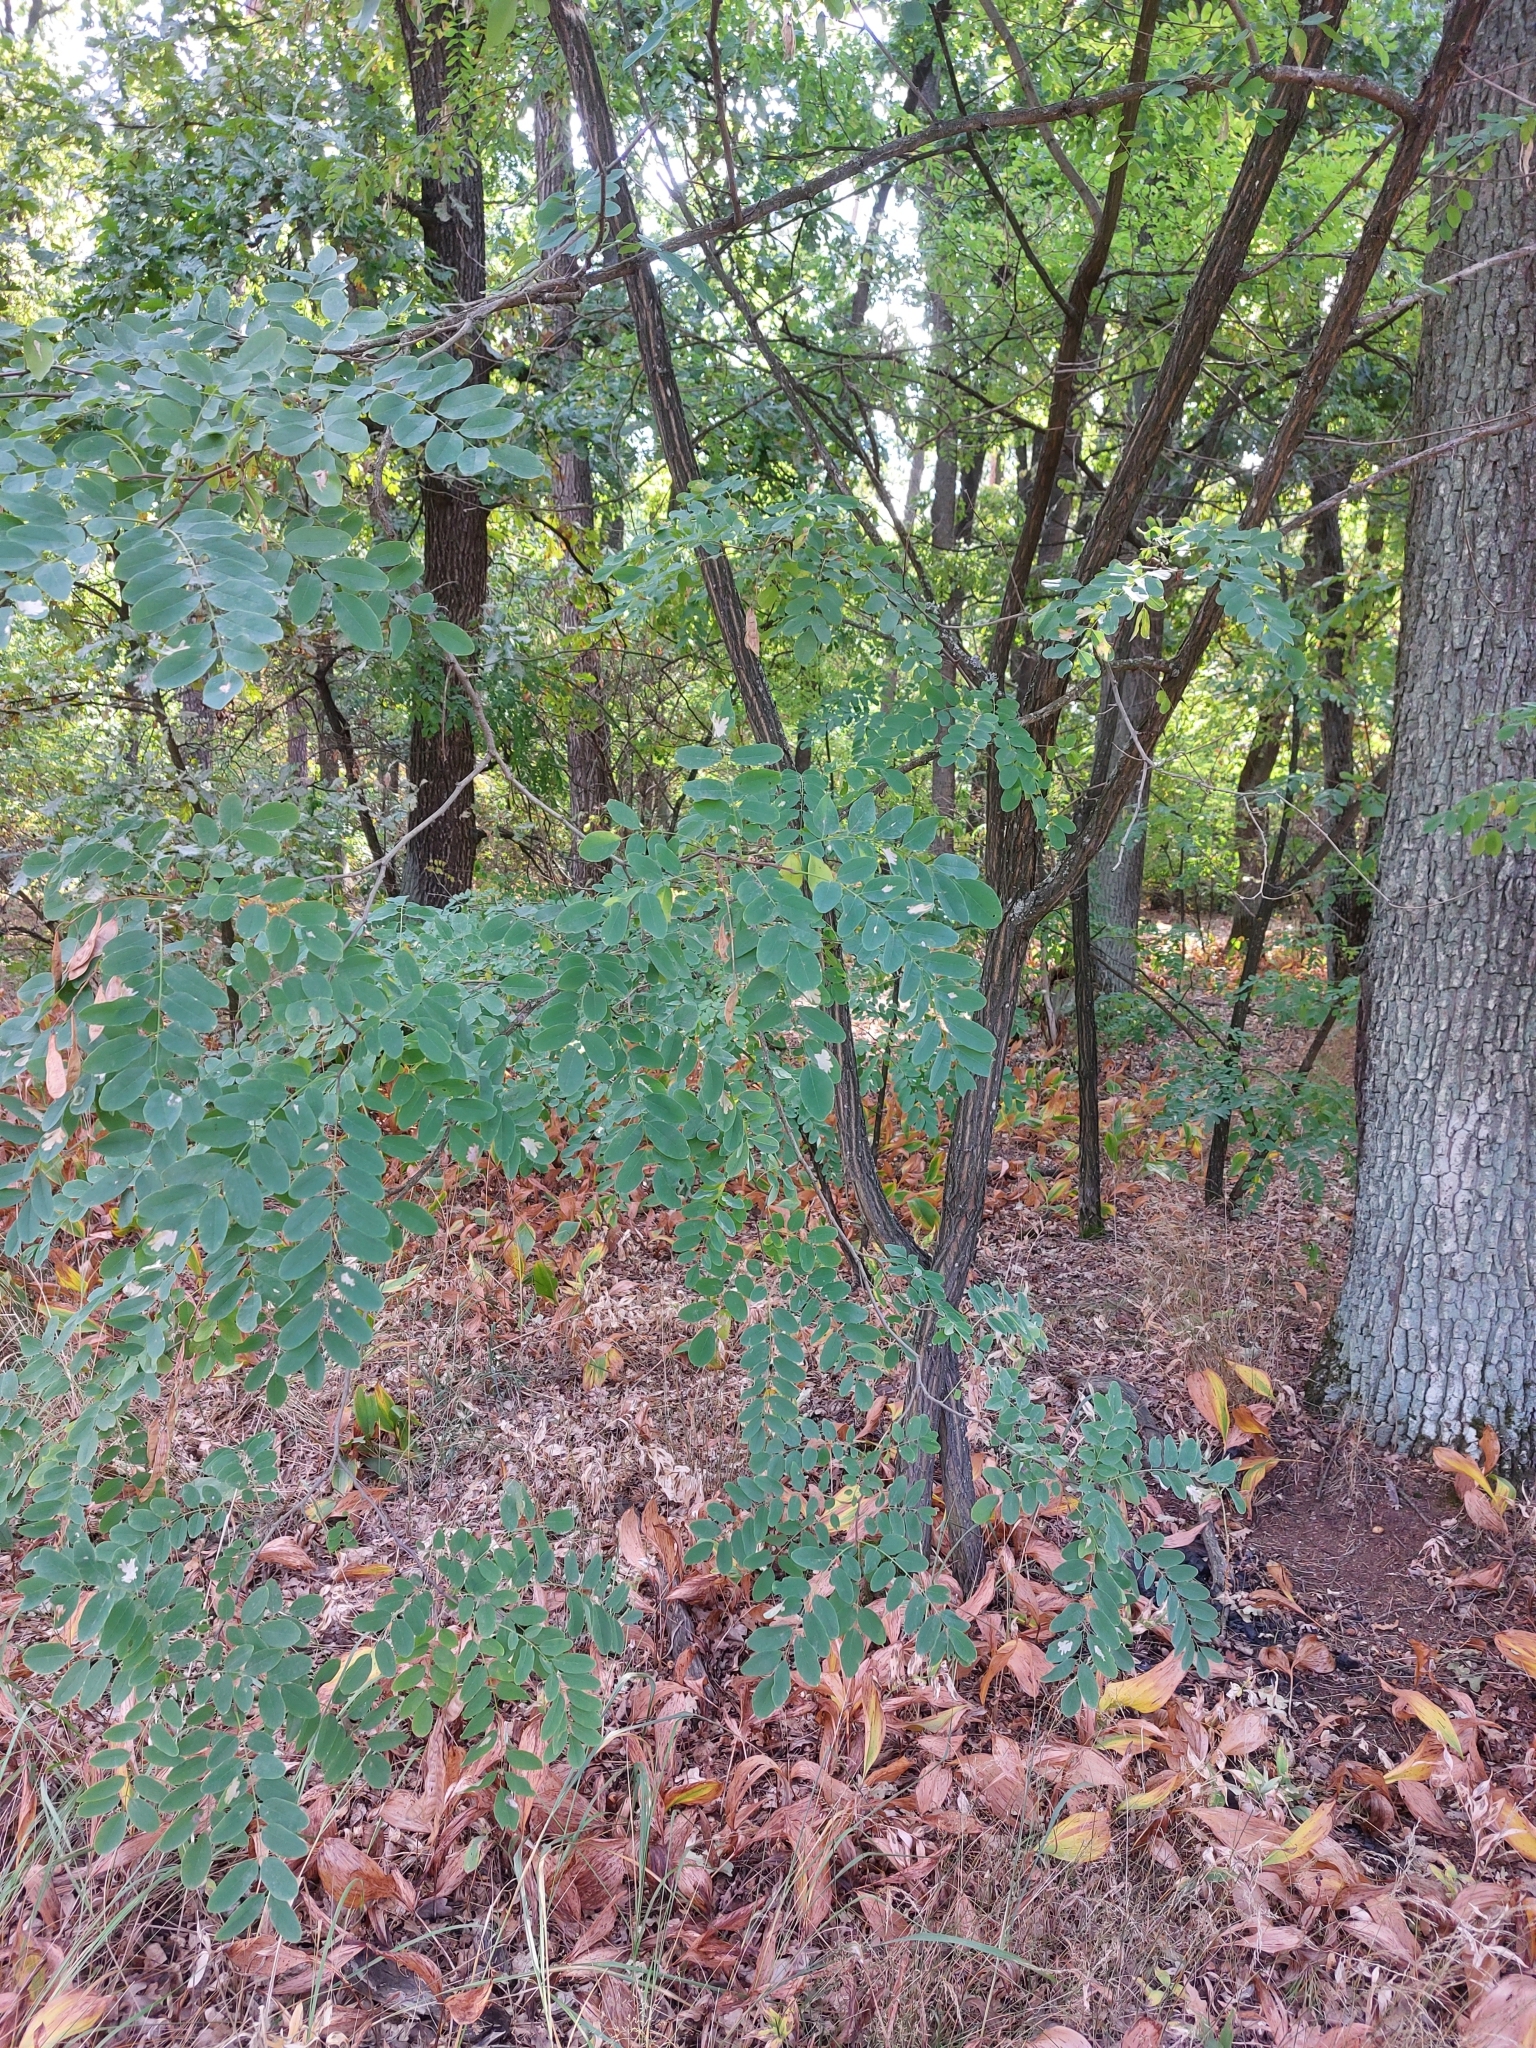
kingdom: Plantae
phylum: Tracheophyta
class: Magnoliopsida
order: Fabales
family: Fabaceae
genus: Robinia
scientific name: Robinia pseudoacacia
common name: Black locust
